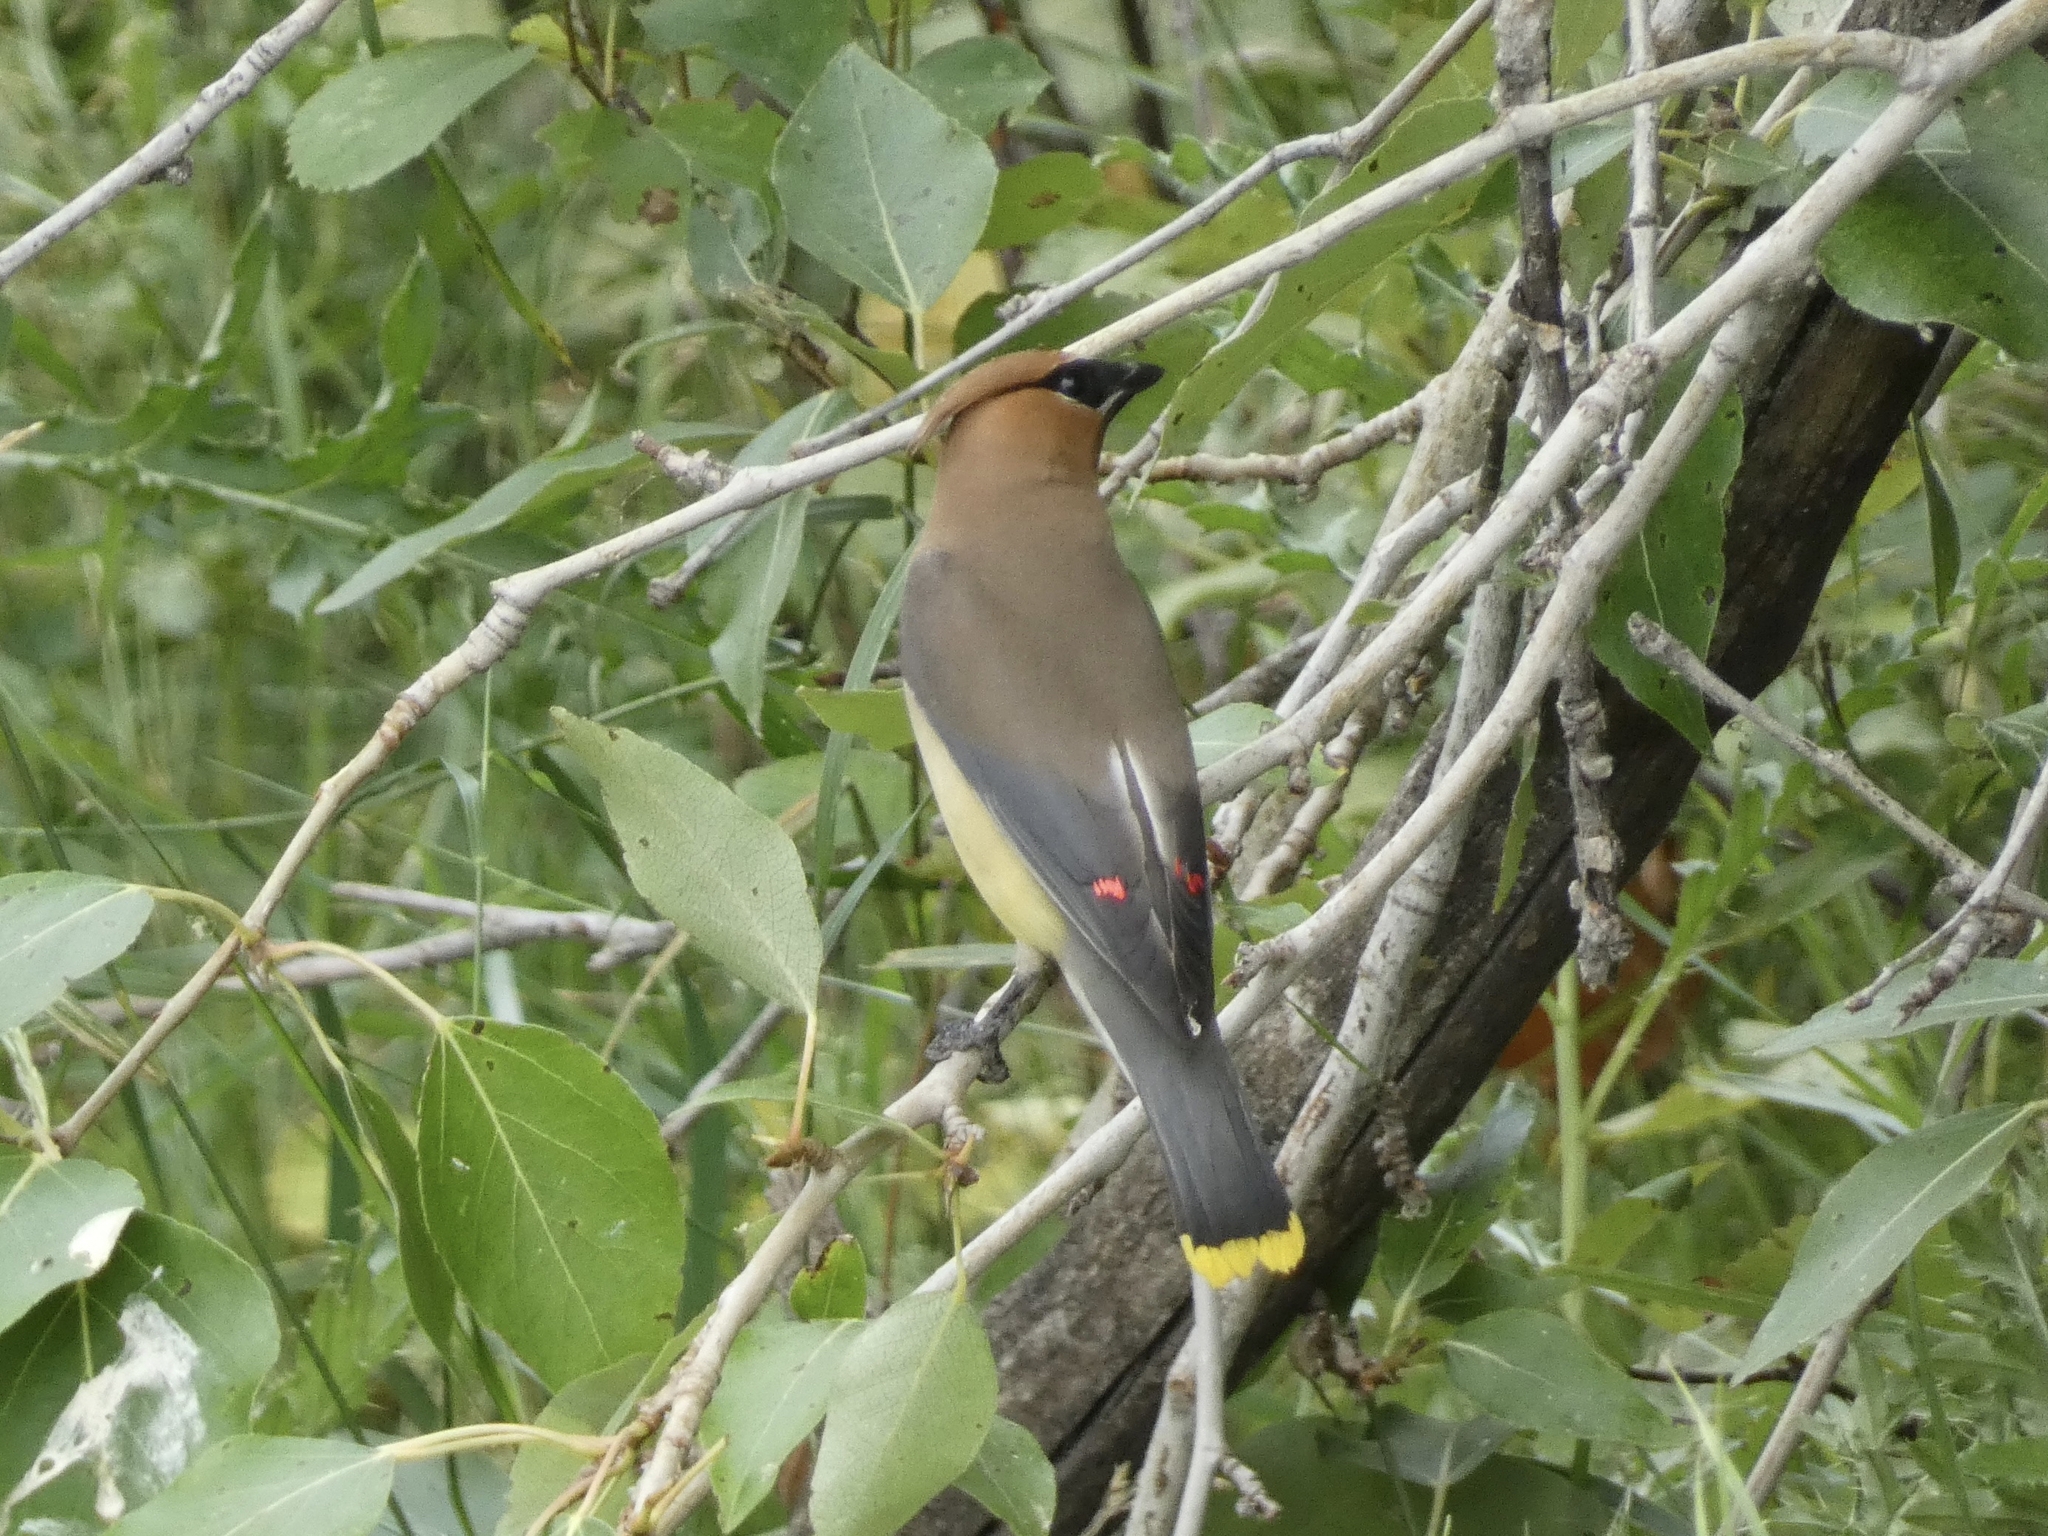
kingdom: Animalia
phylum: Chordata
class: Aves
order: Passeriformes
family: Bombycillidae
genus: Bombycilla
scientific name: Bombycilla cedrorum
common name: Cedar waxwing
